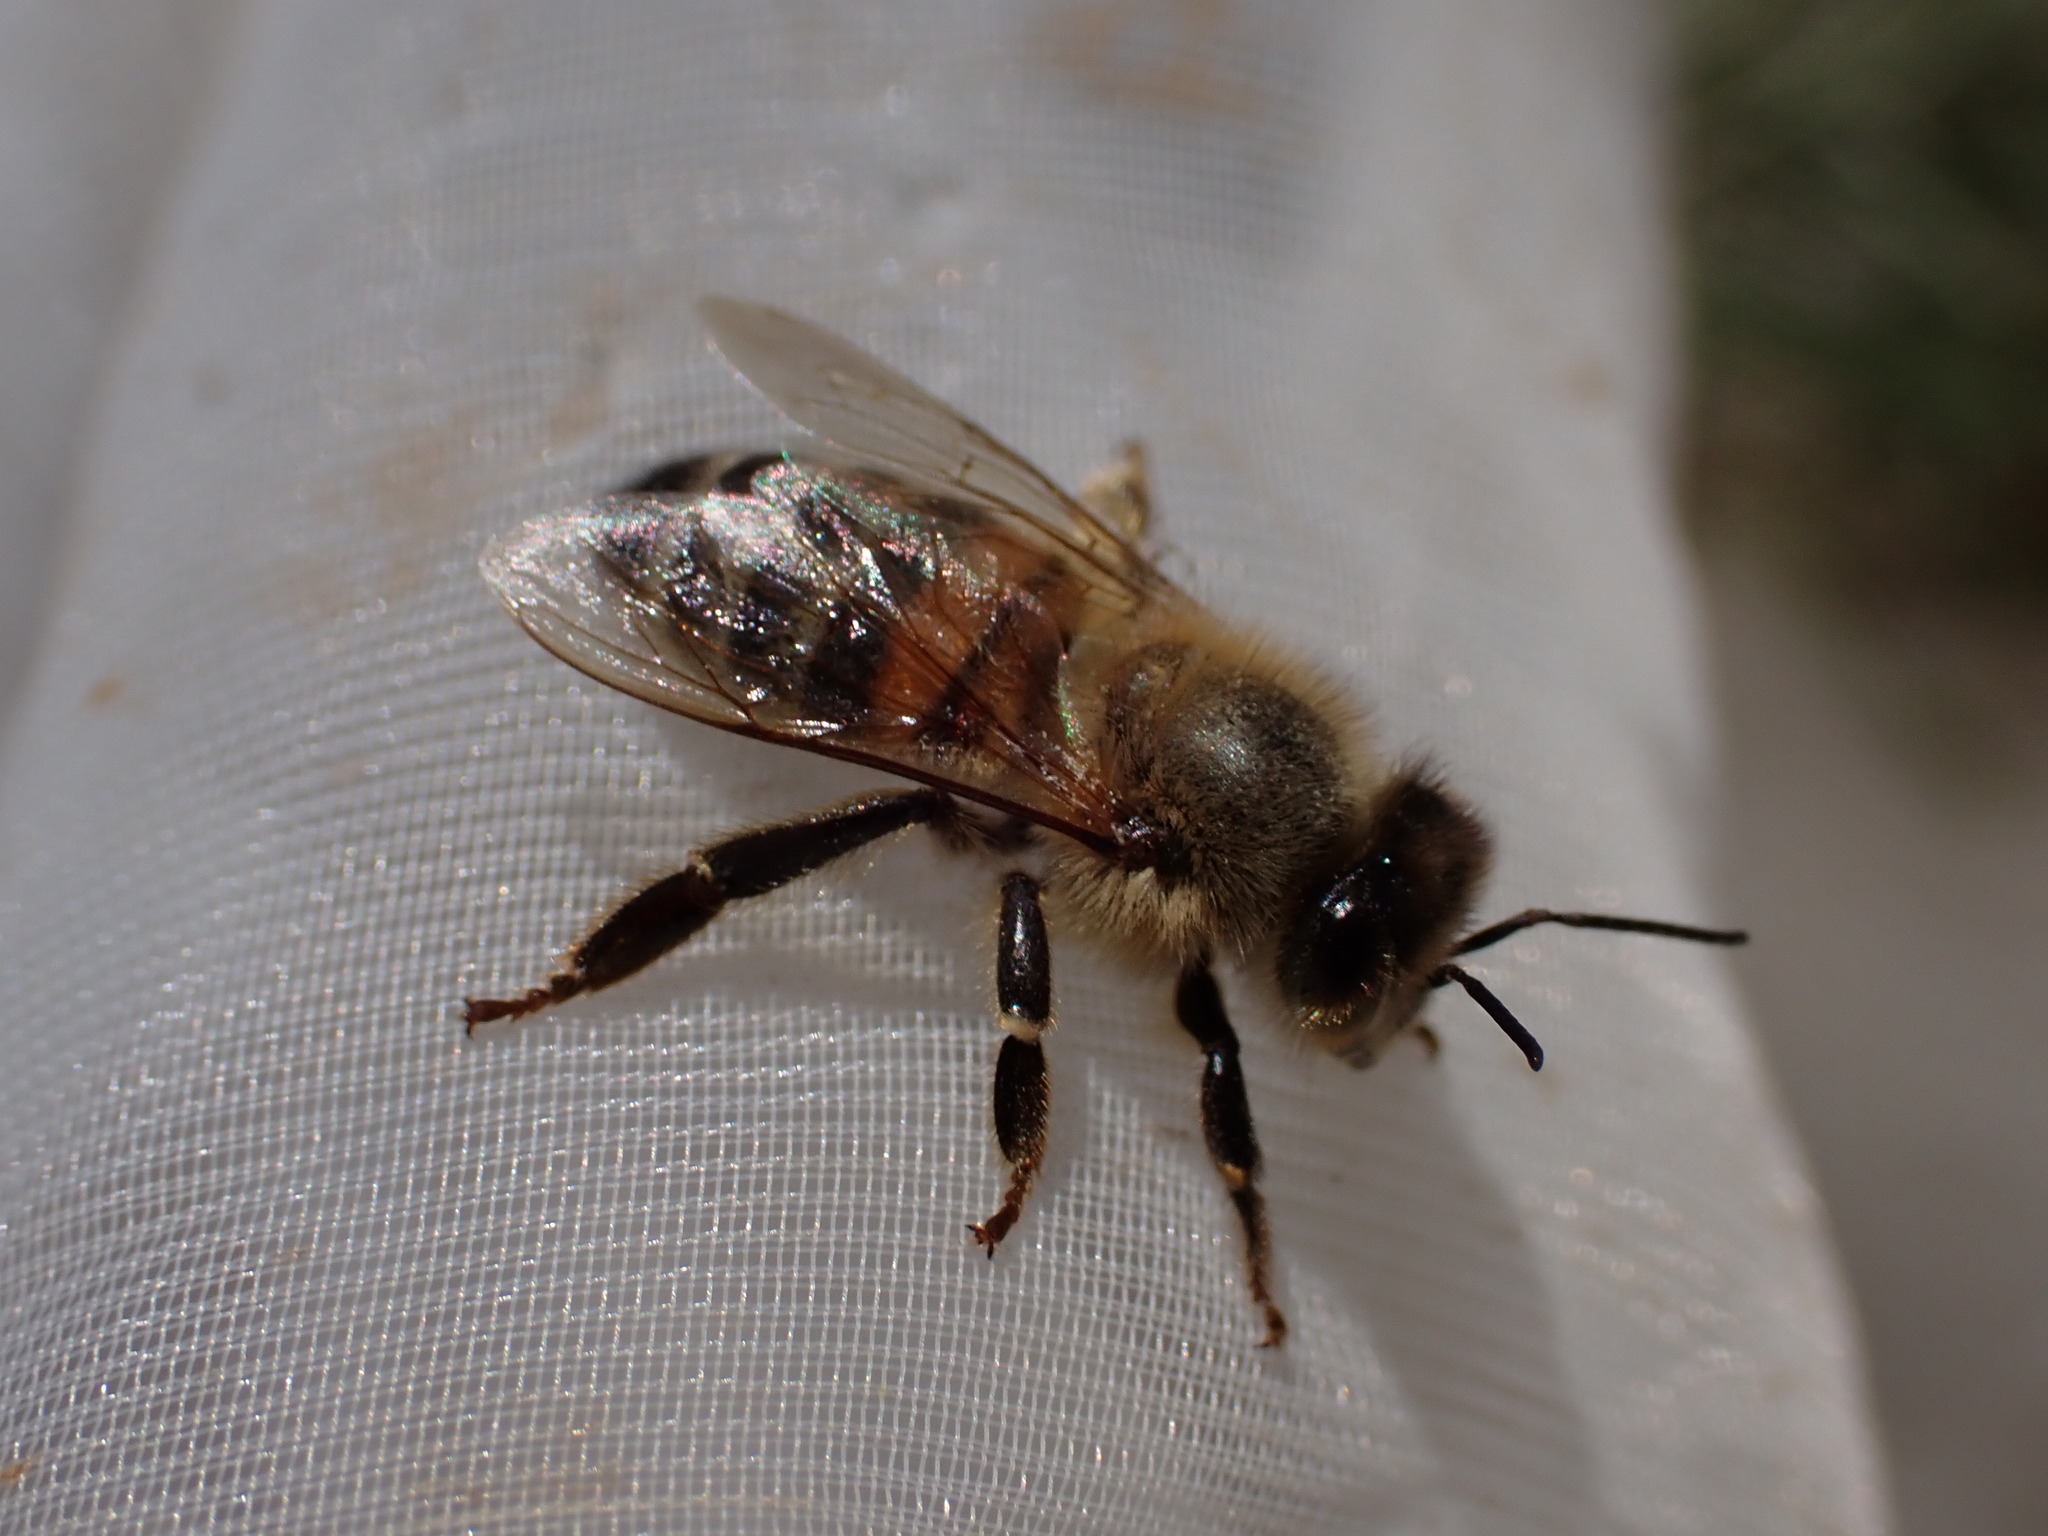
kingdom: Animalia
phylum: Arthropoda
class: Insecta
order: Hymenoptera
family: Apidae
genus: Apis
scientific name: Apis mellifera
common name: Honey bee
